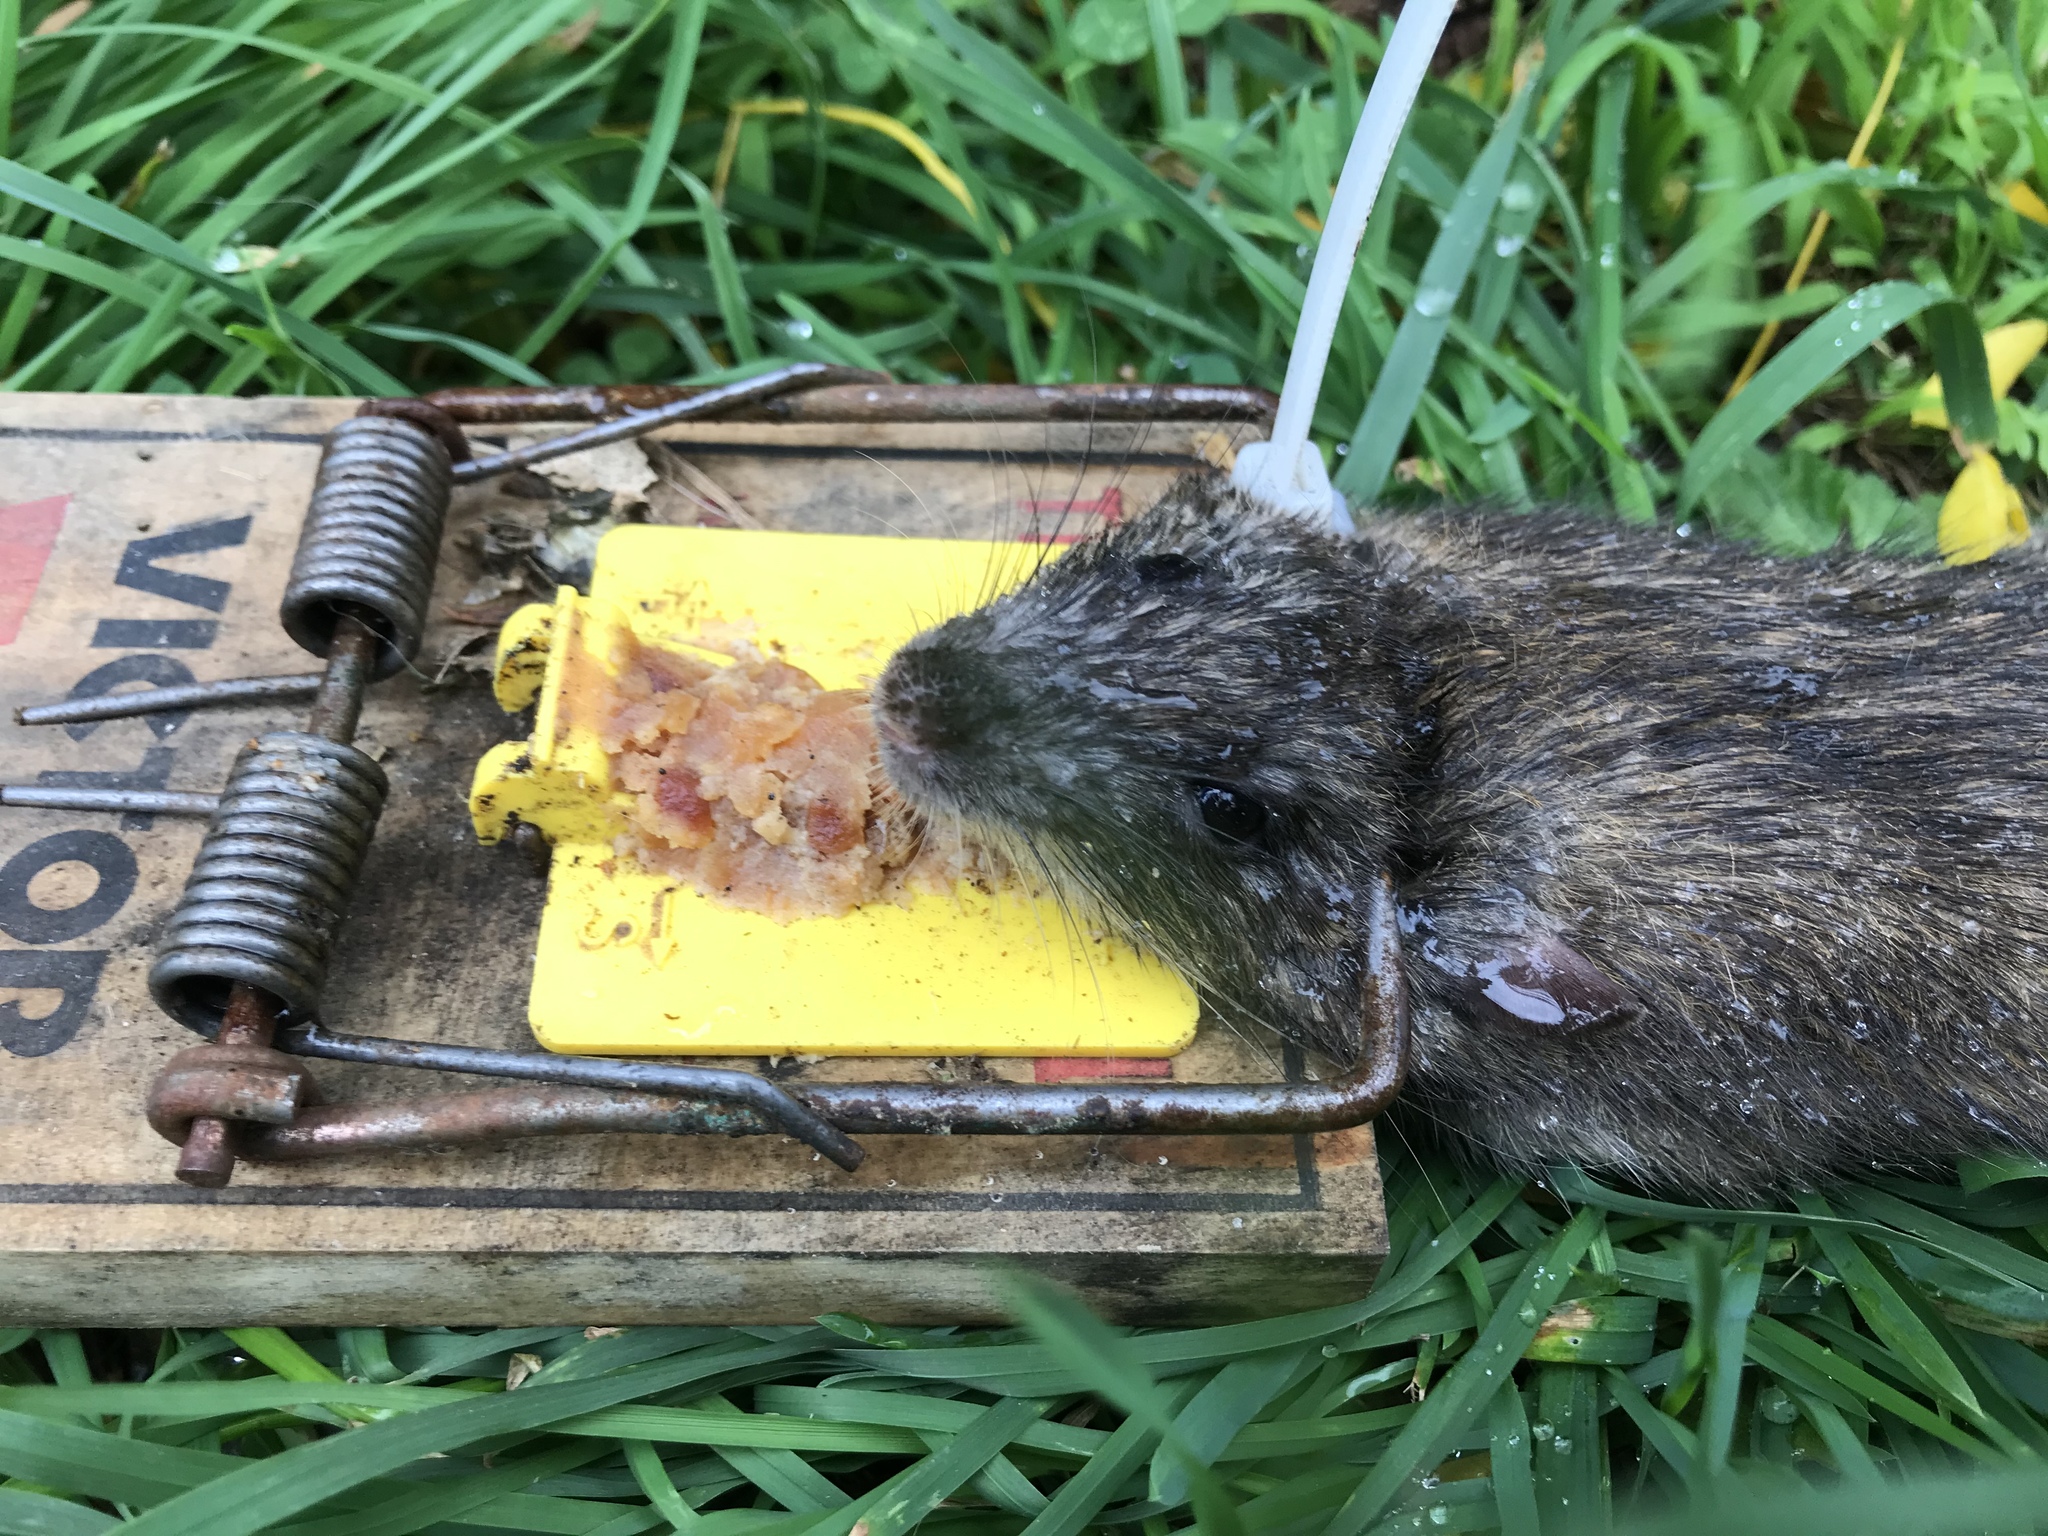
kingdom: Animalia
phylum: Chordata
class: Mammalia
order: Rodentia
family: Muridae
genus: Rattus
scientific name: Rattus norvegicus
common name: Brown rat
